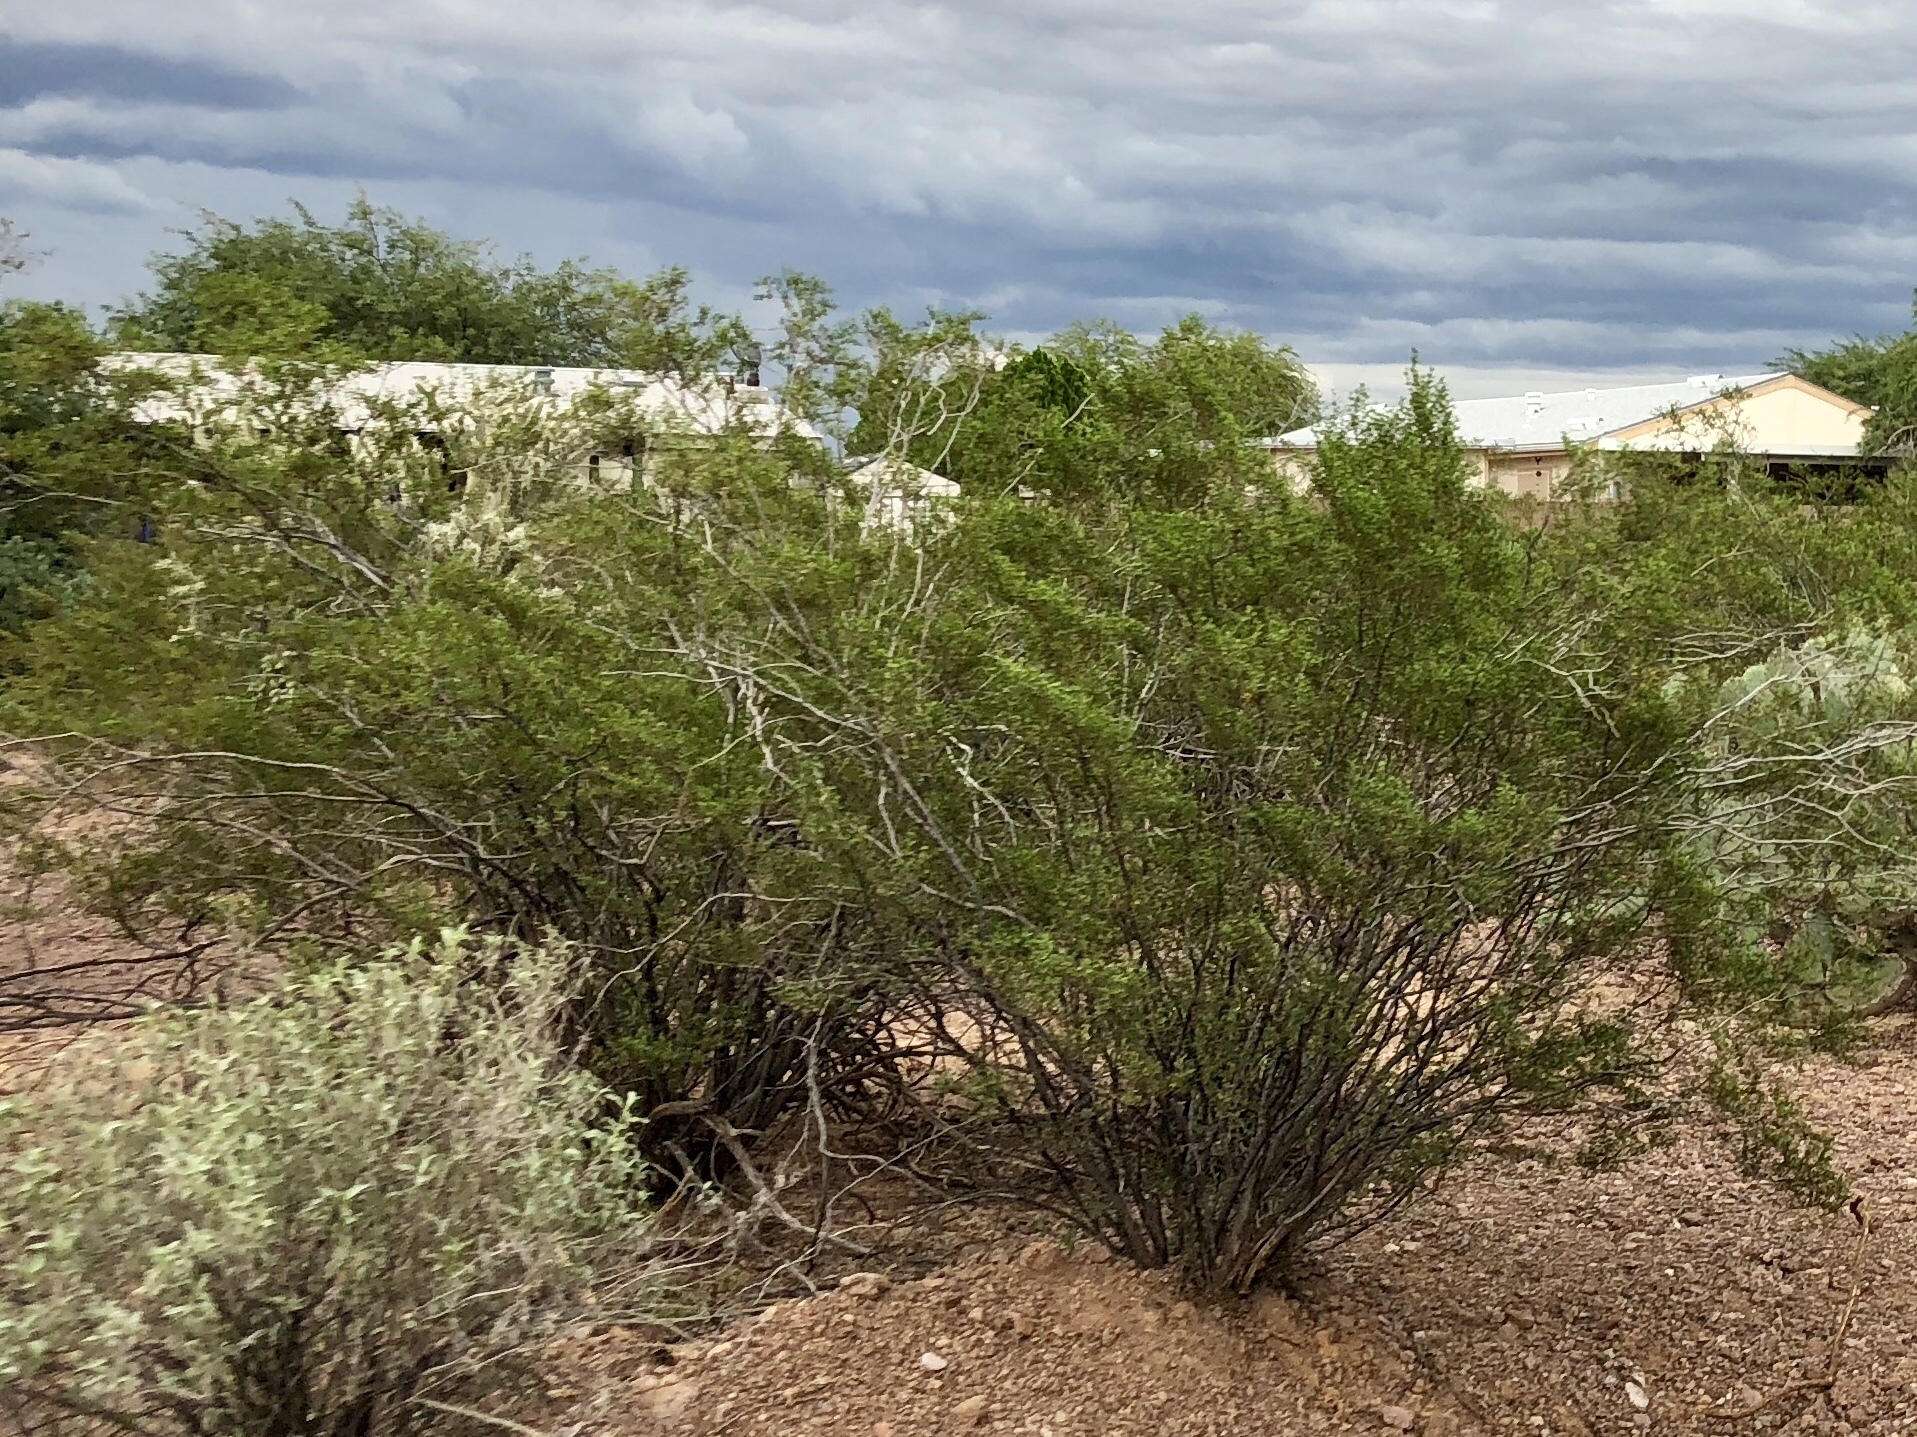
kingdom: Plantae
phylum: Tracheophyta
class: Magnoliopsida
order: Zygophyllales
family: Zygophyllaceae
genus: Larrea
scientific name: Larrea tridentata
